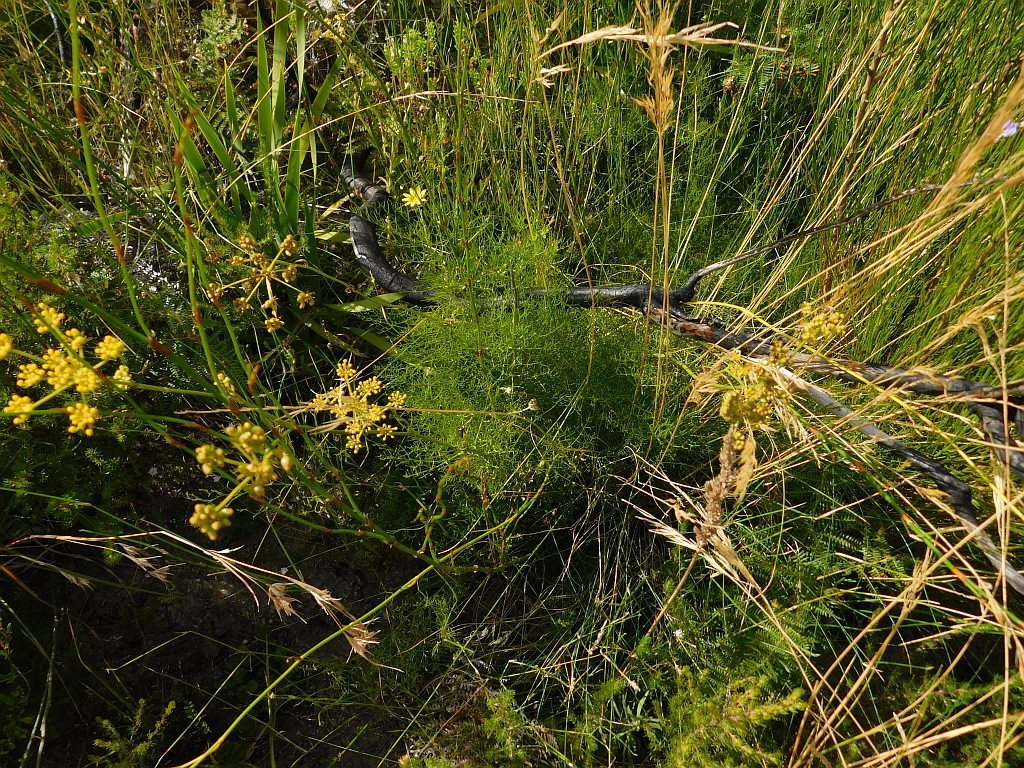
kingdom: Plantae
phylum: Tracheophyta
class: Magnoliopsida
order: Apiales
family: Apiaceae
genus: Nanobubon
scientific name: Nanobubon capillaceum
